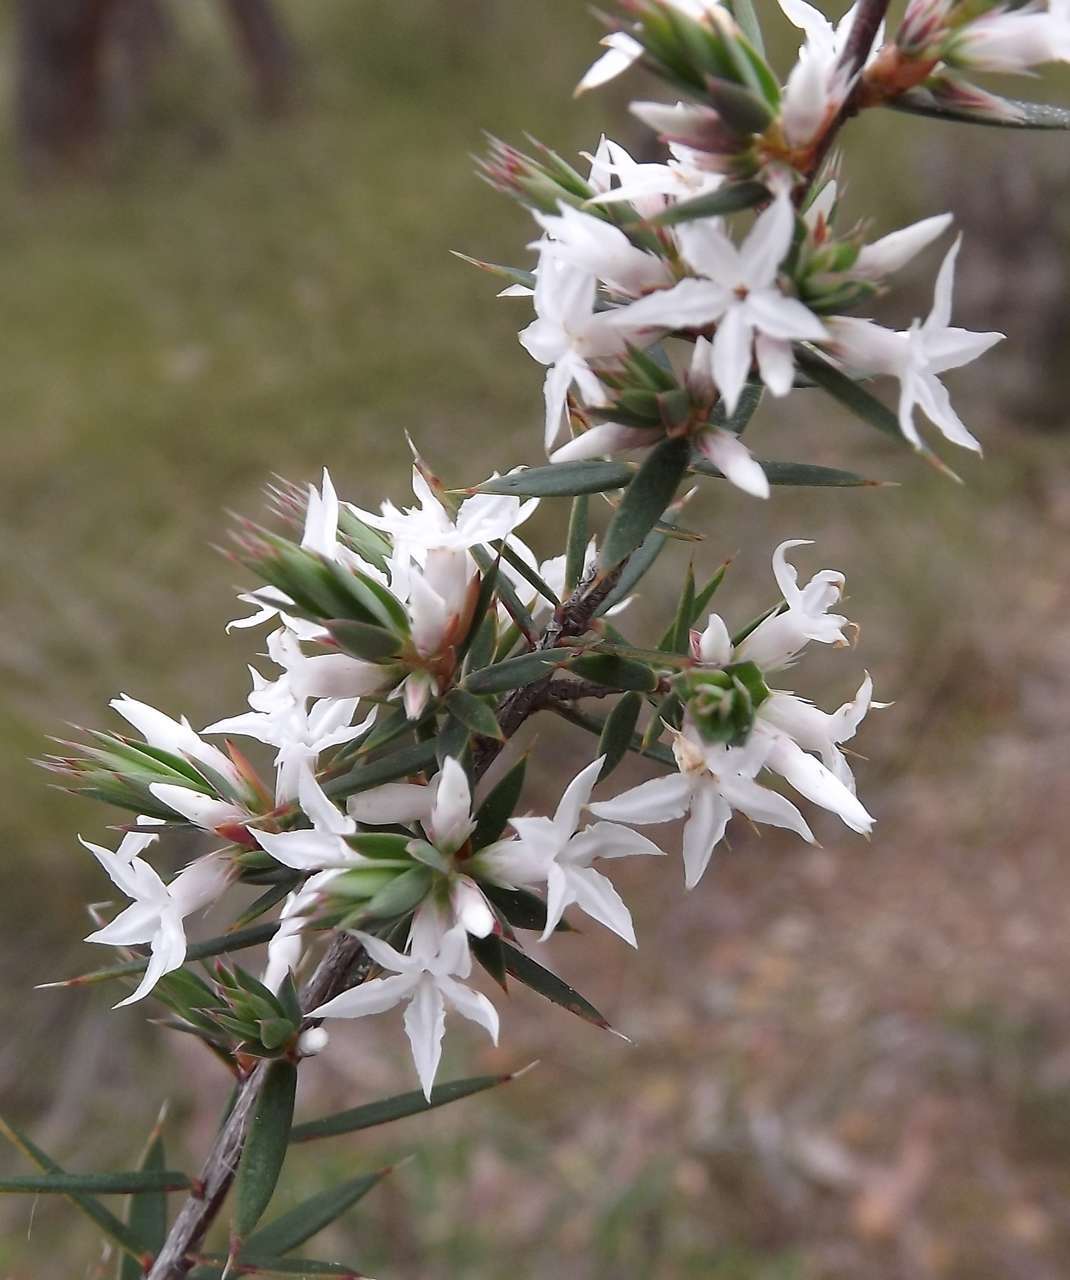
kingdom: Plantae
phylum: Tracheophyta
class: Magnoliopsida
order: Ericales
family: Ericaceae
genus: Brachyloma
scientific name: Brachyloma depressum
